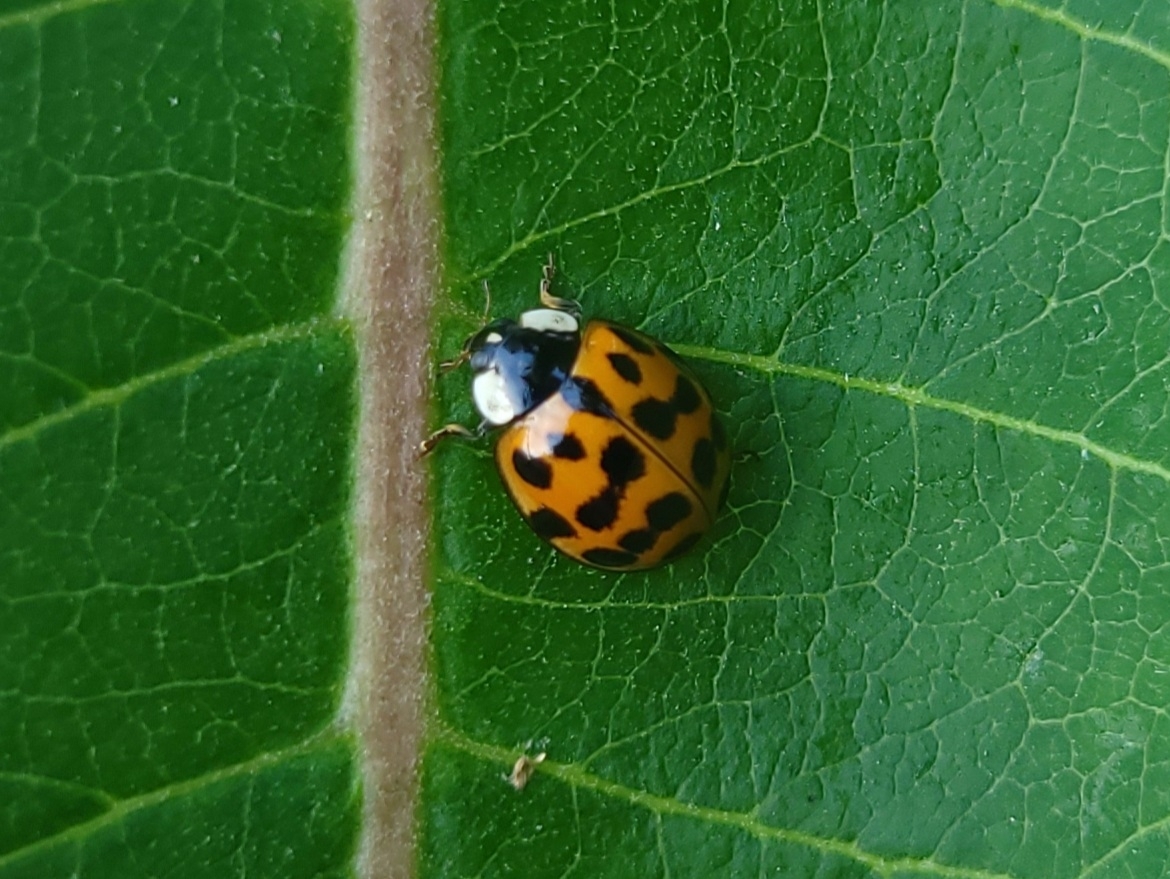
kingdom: Animalia
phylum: Arthropoda
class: Insecta
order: Coleoptera
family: Coccinellidae
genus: Harmonia
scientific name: Harmonia axyridis
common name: Harlequin ladybird
